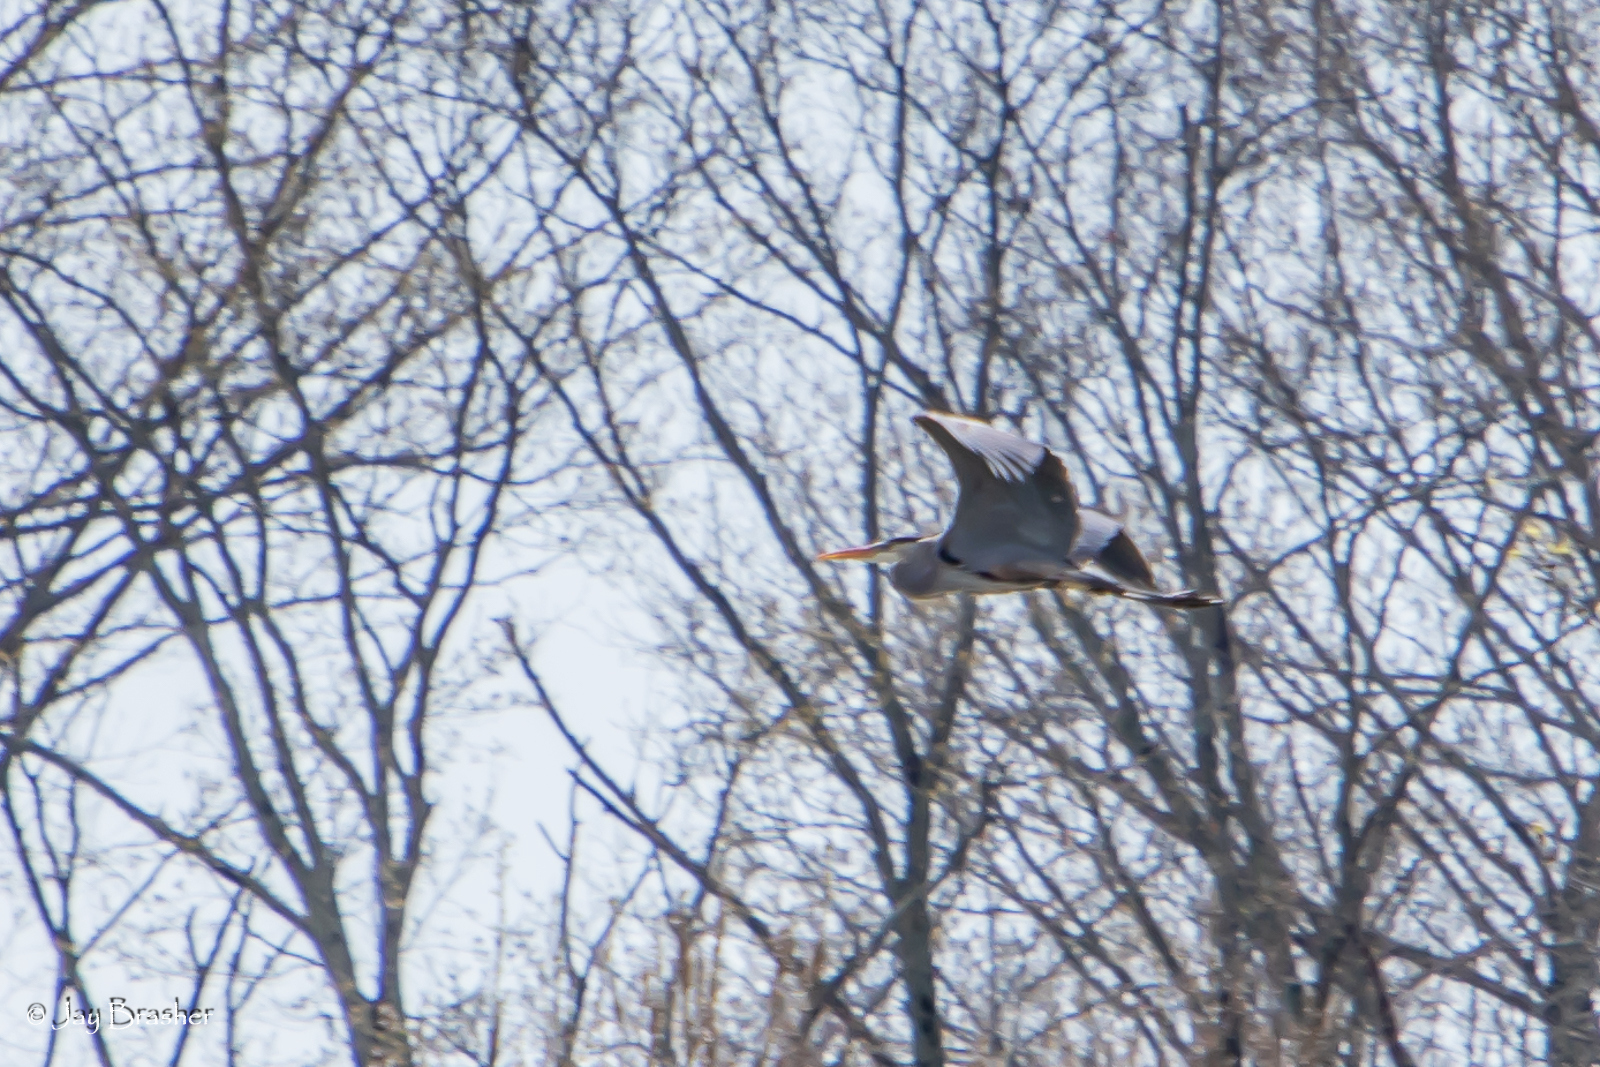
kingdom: Animalia
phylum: Chordata
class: Aves
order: Pelecaniformes
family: Ardeidae
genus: Ardea
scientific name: Ardea herodias
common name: Great blue heron
